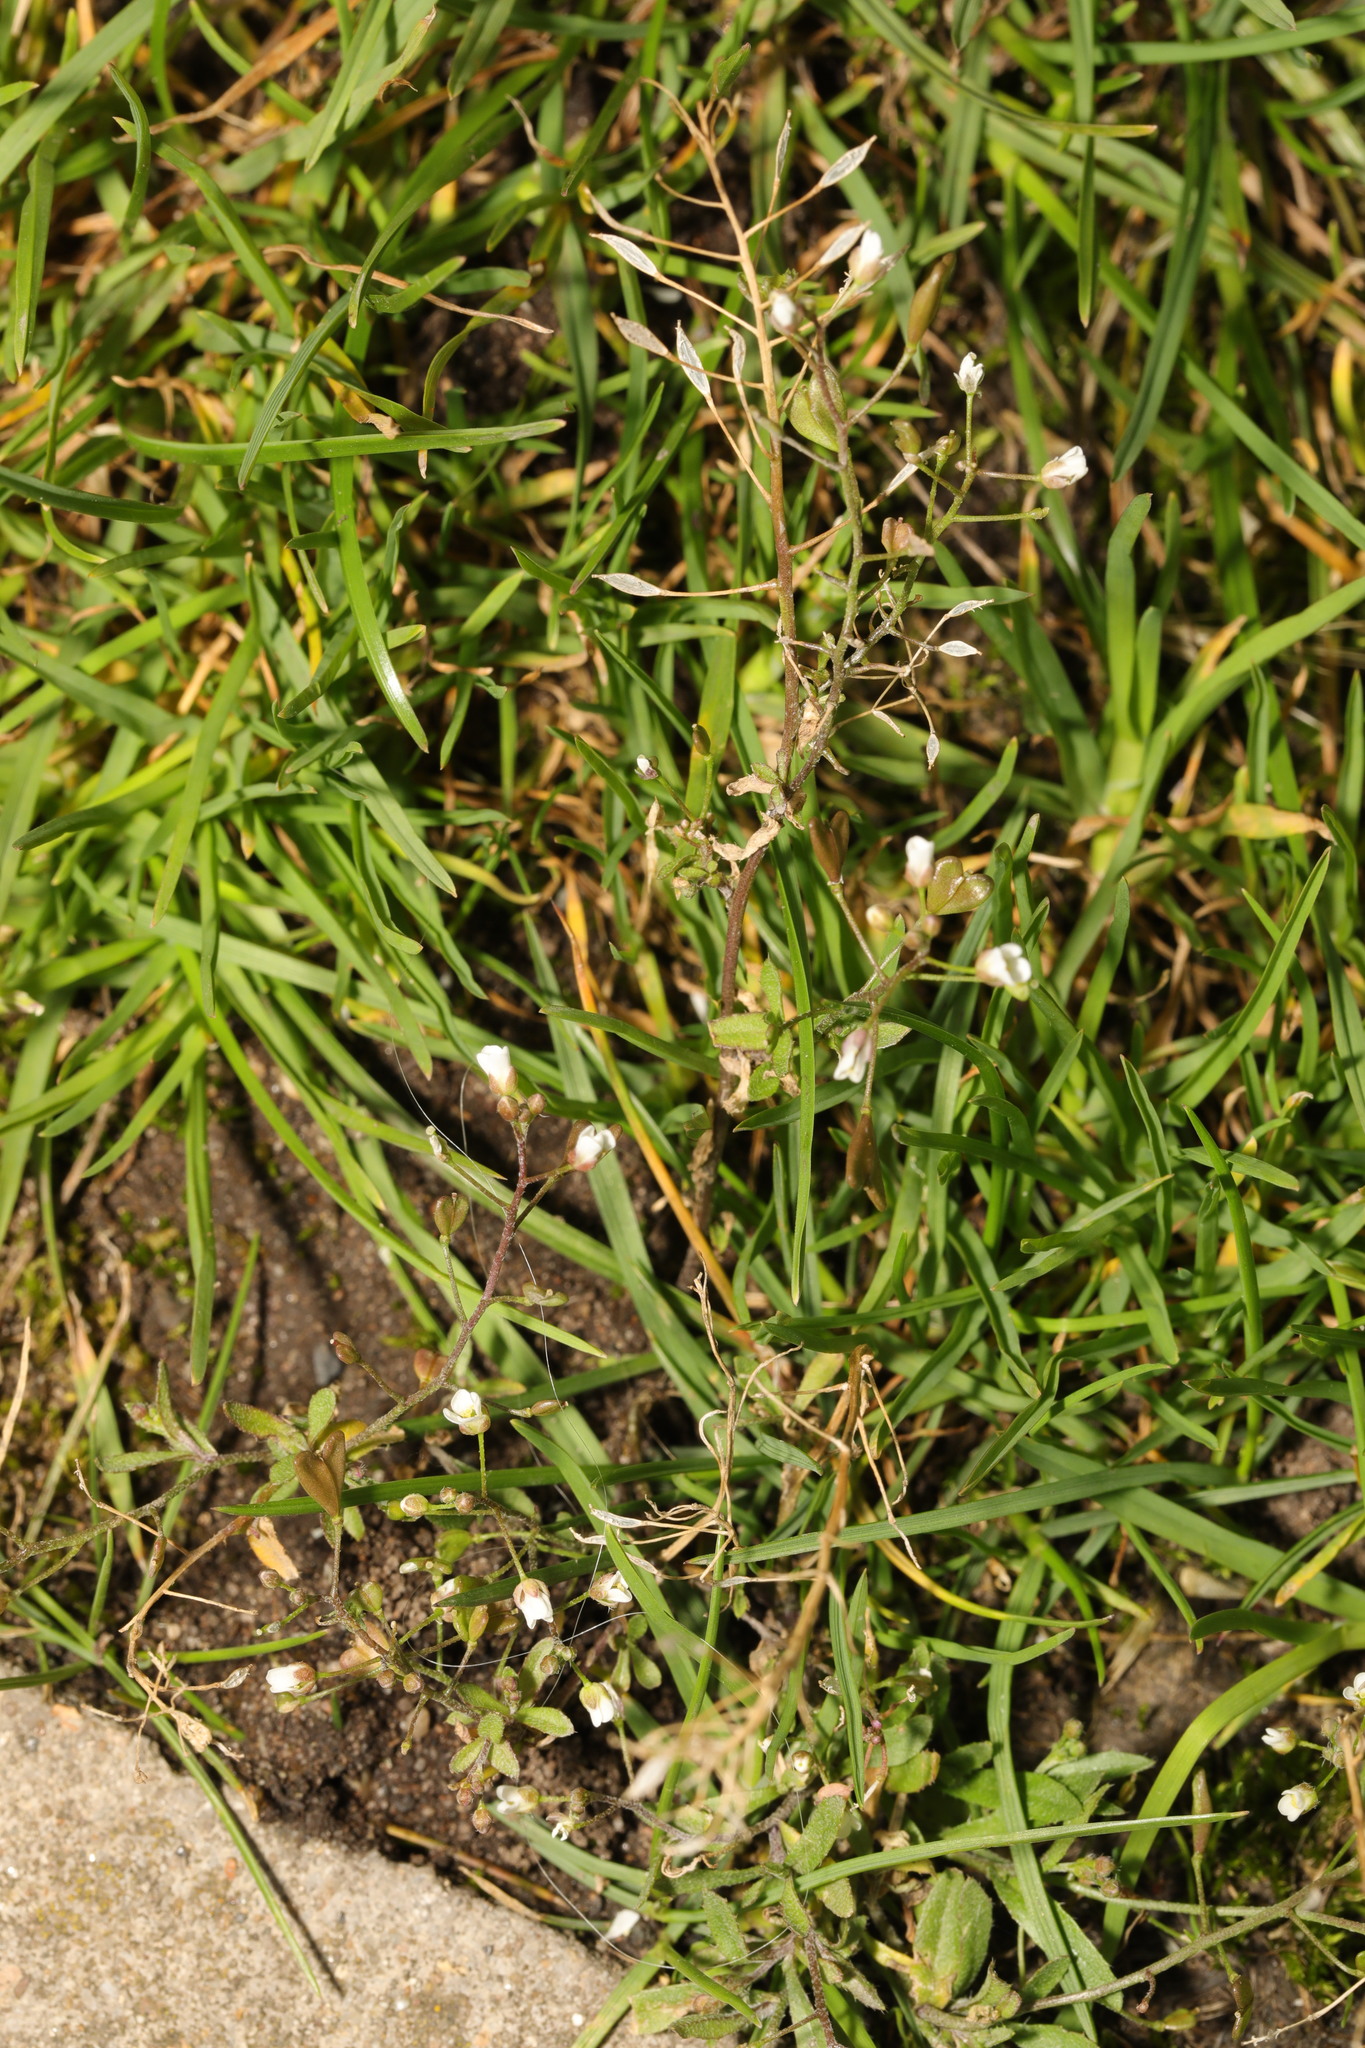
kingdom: Plantae
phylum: Tracheophyta
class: Magnoliopsida
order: Brassicales
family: Brassicaceae
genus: Capsella
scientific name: Capsella bursa-pastoris
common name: Shepherd's purse
